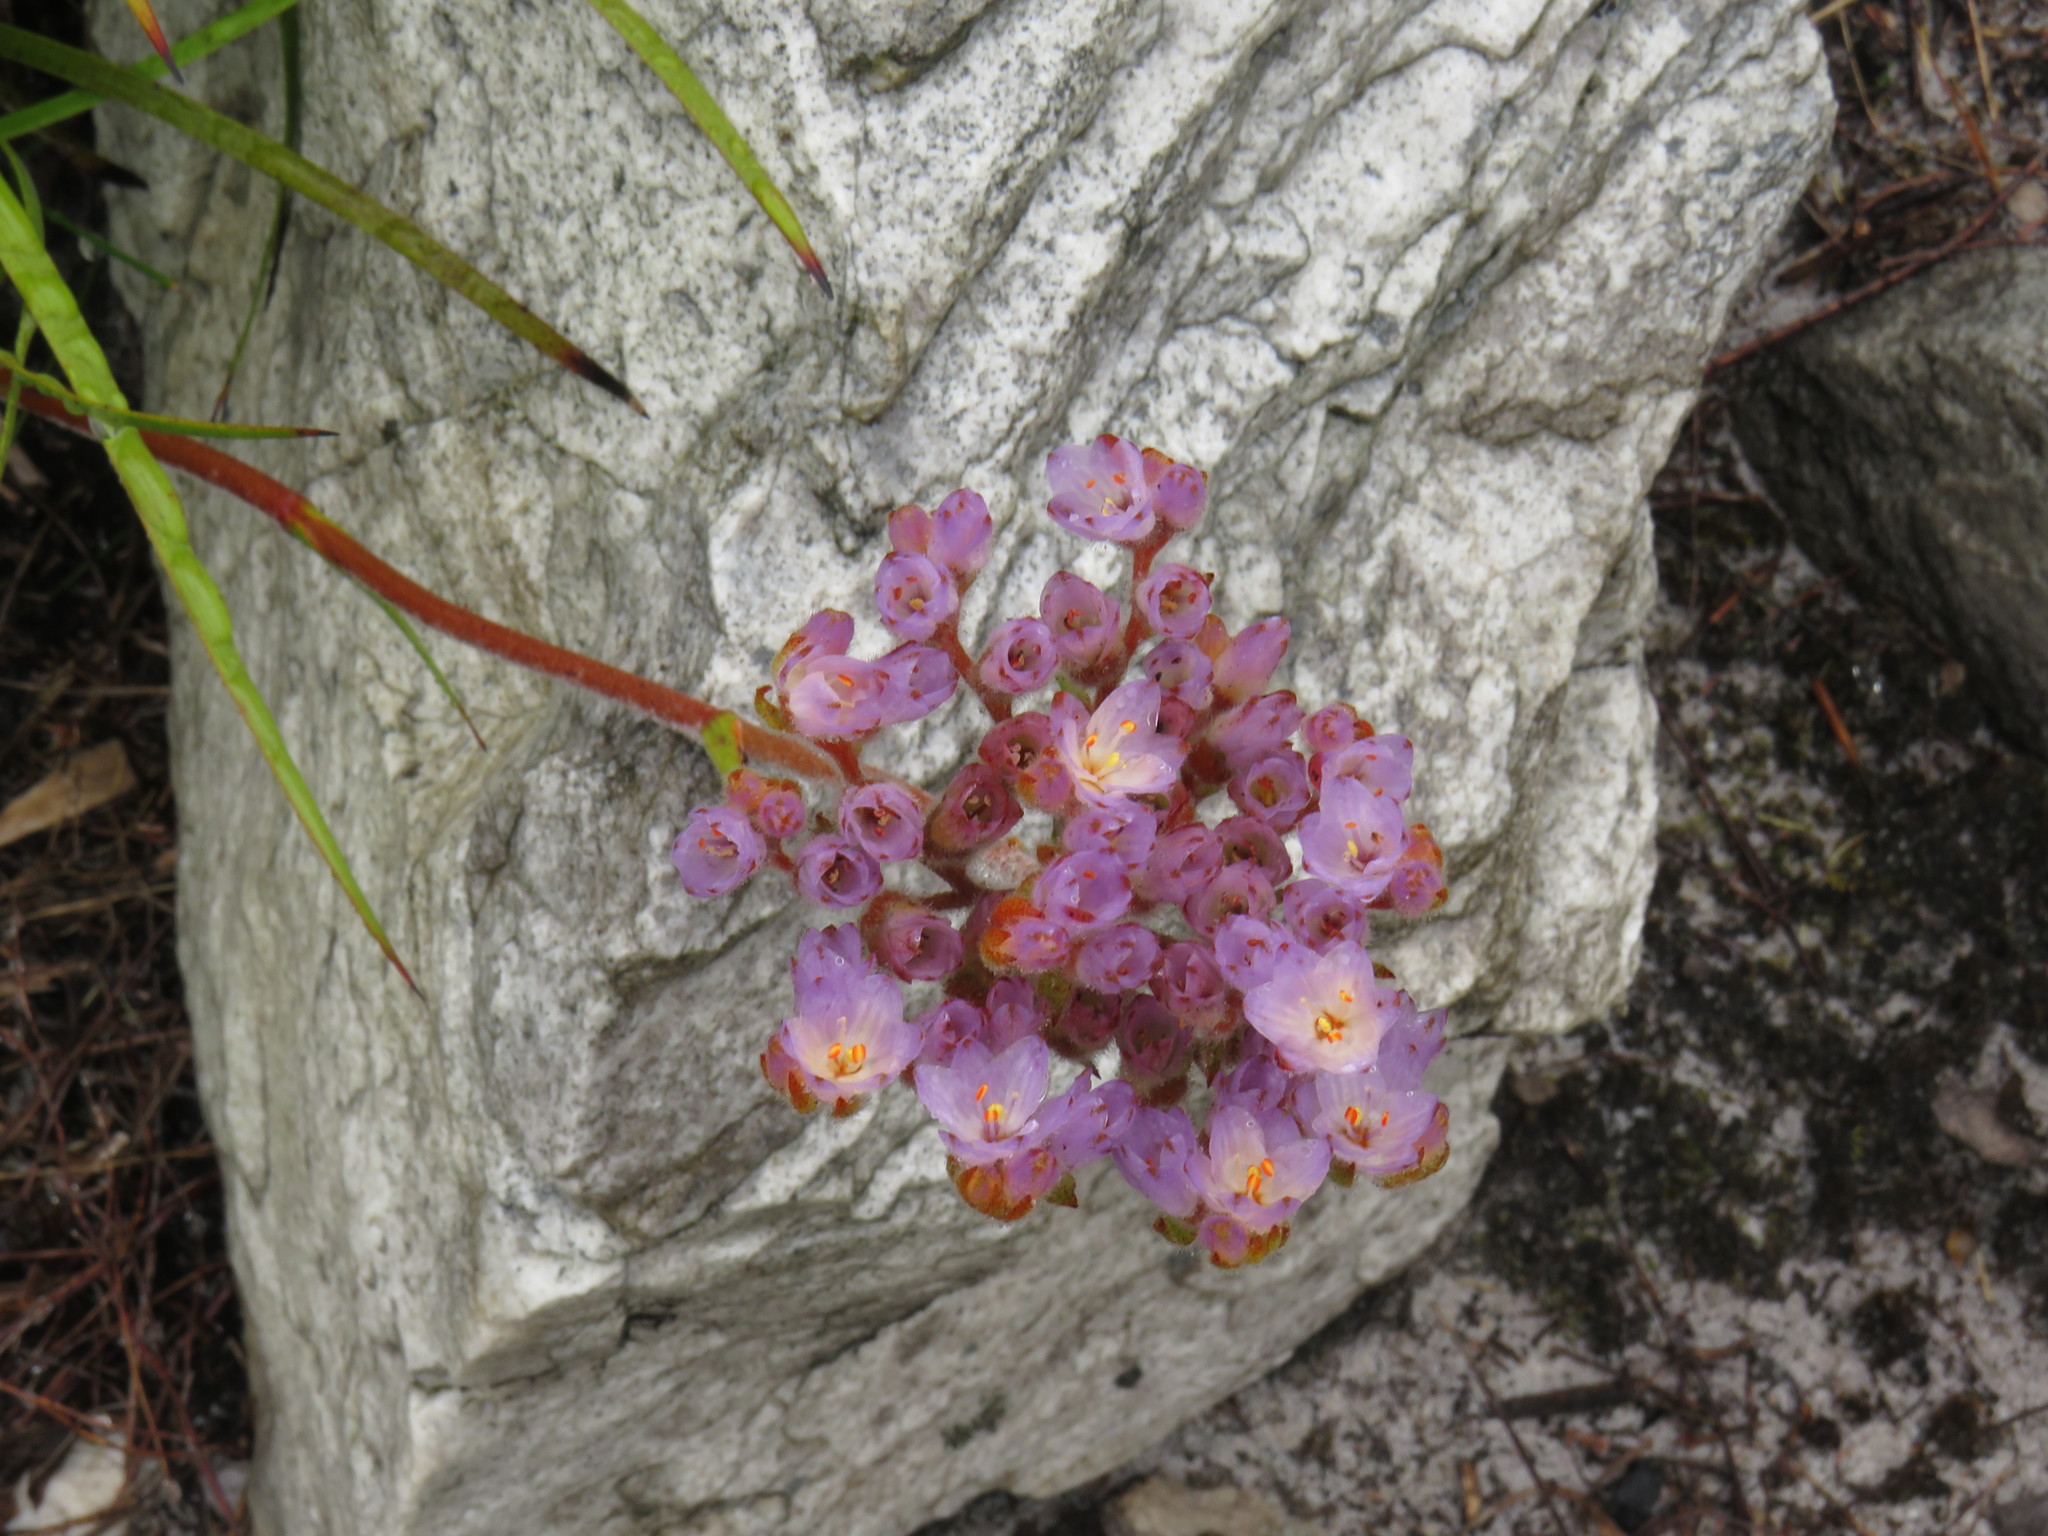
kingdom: Plantae
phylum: Tracheophyta
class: Liliopsida
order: Commelinales
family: Haemodoraceae
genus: Dilatris
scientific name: Dilatris pillansii
